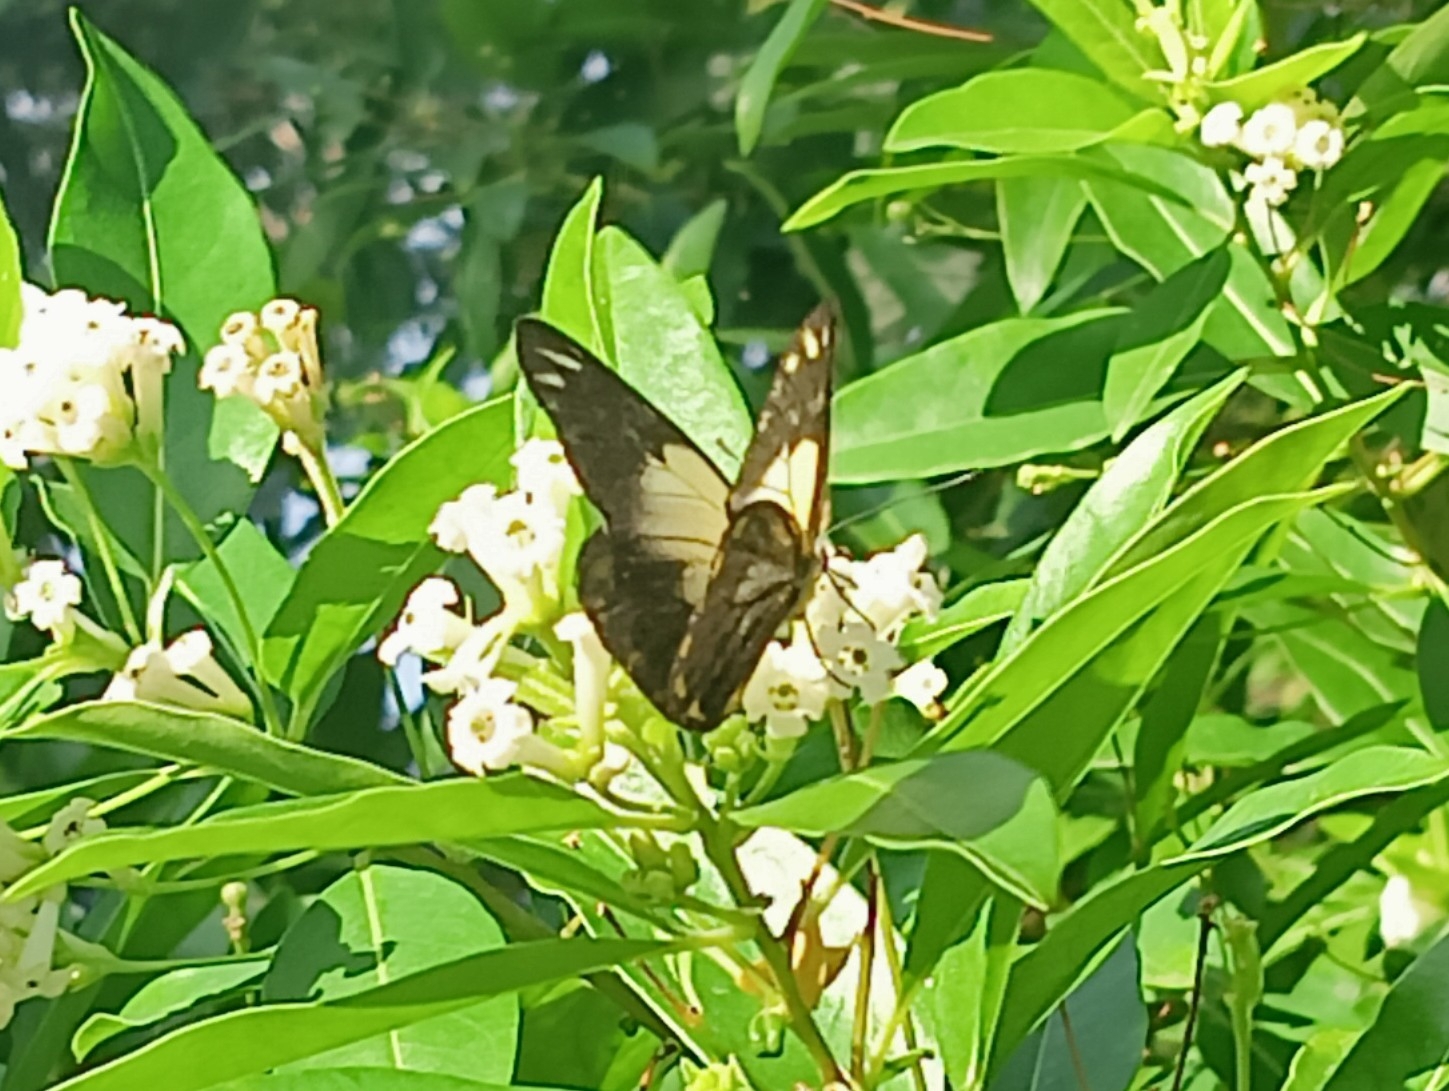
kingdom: Animalia
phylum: Arthropoda
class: Insecta
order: Lepidoptera
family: Pieridae
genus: Belenois
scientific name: Belenois java
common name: Caper white
